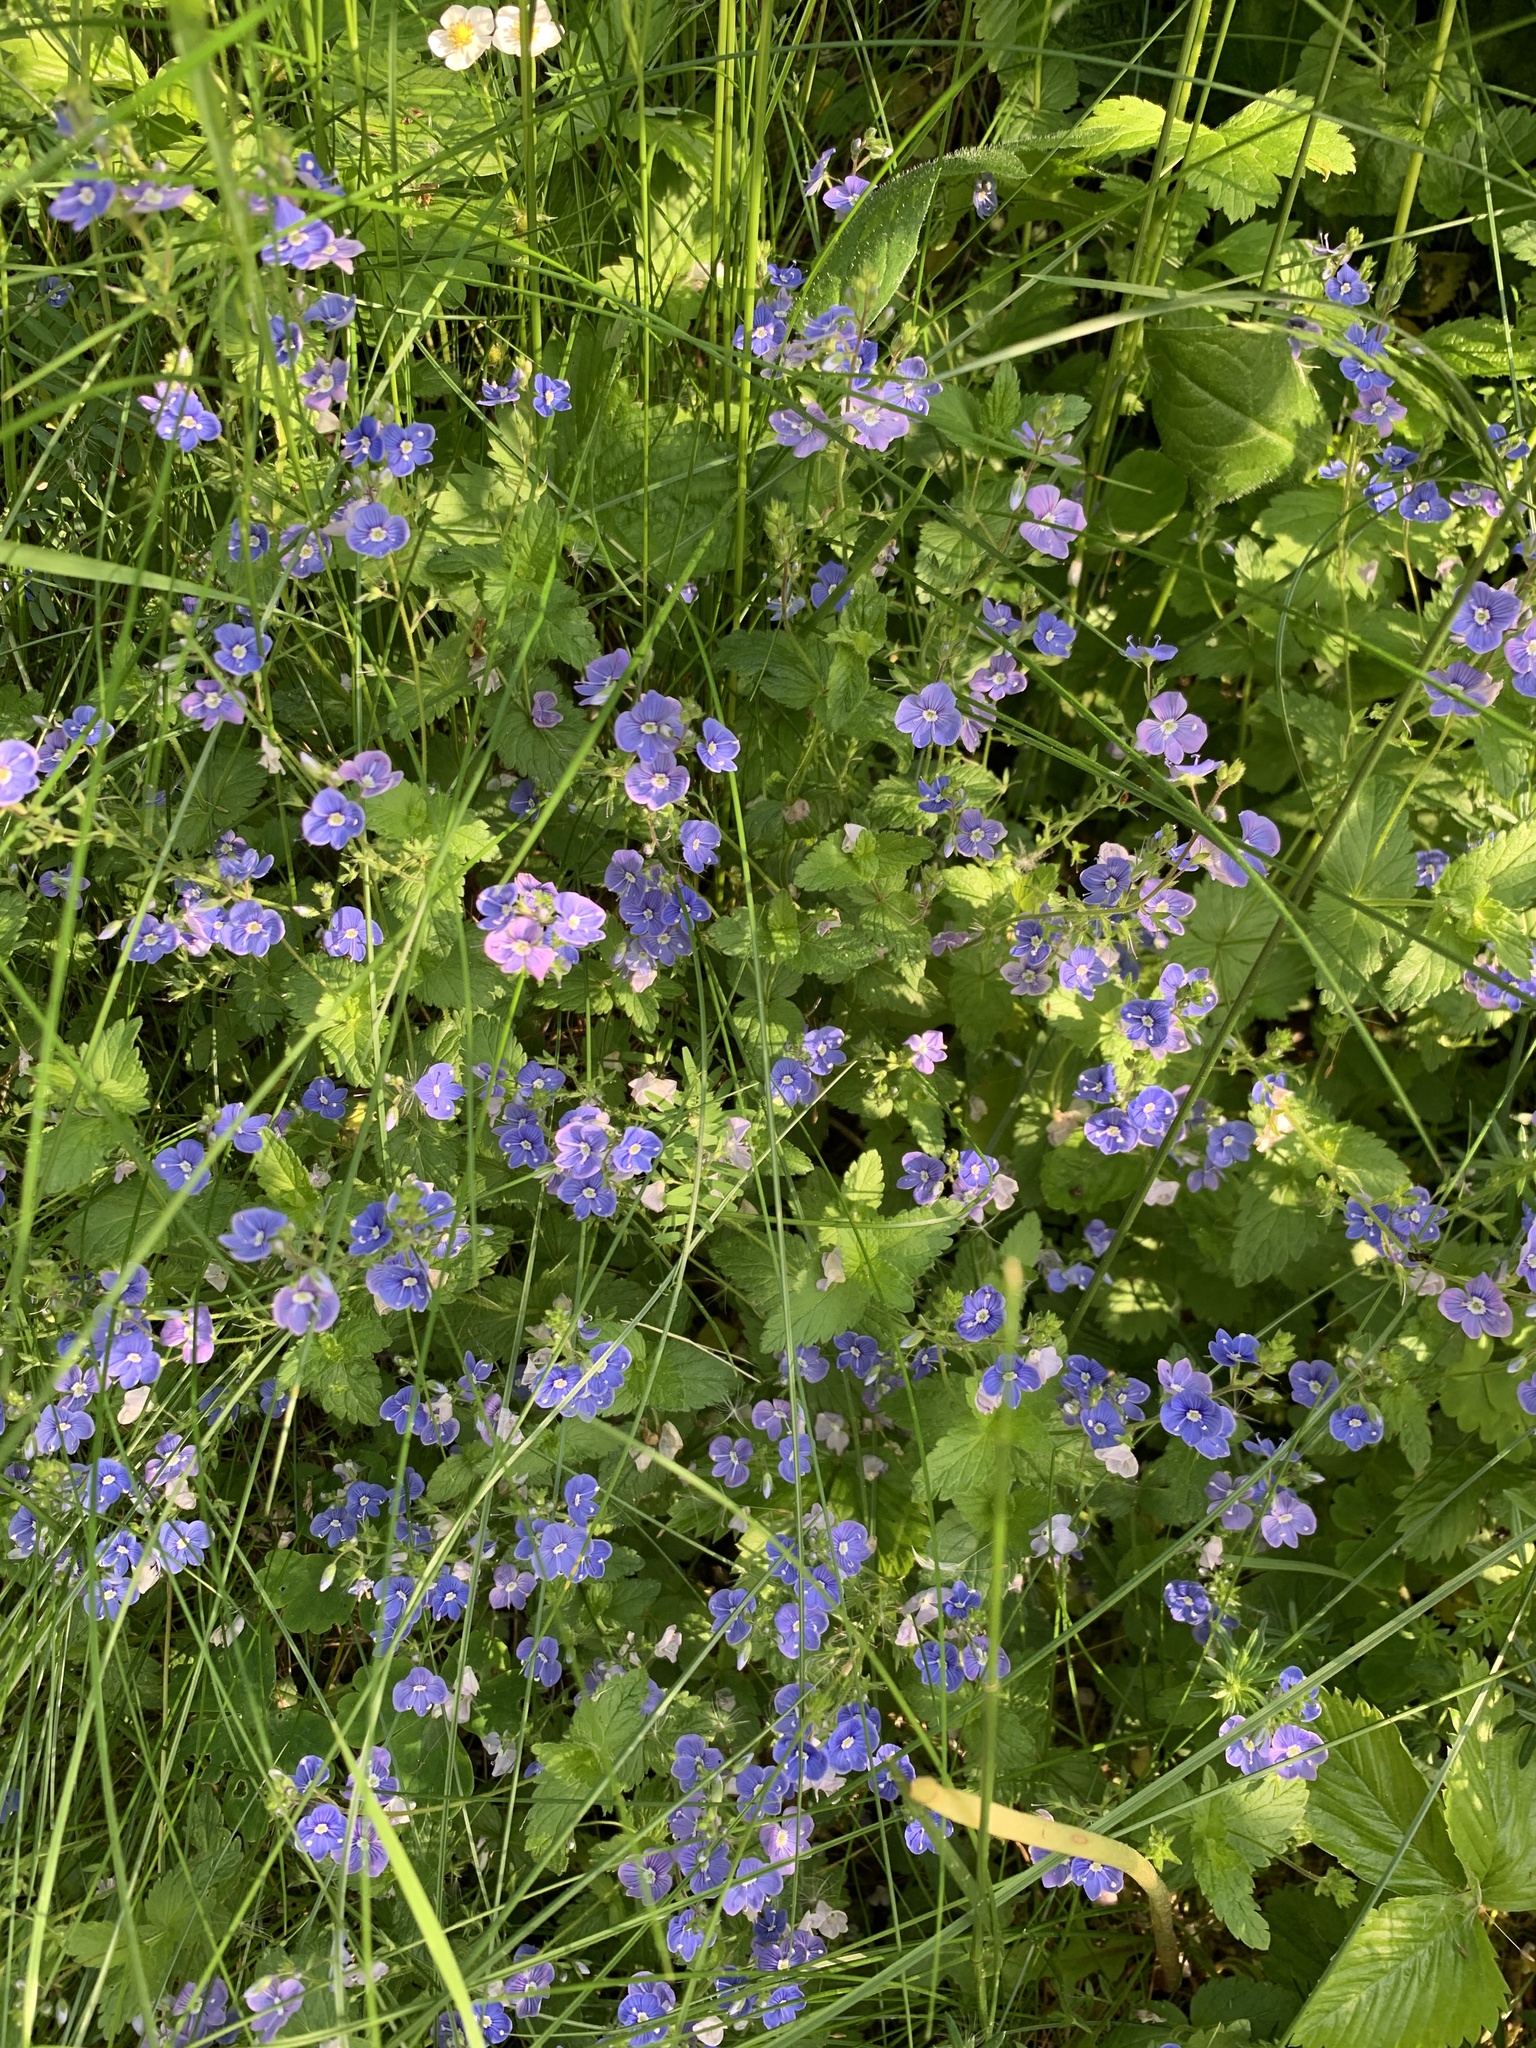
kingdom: Plantae
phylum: Tracheophyta
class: Magnoliopsida
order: Lamiales
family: Plantaginaceae
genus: Veronica
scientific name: Veronica chamaedrys
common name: Germander speedwell
